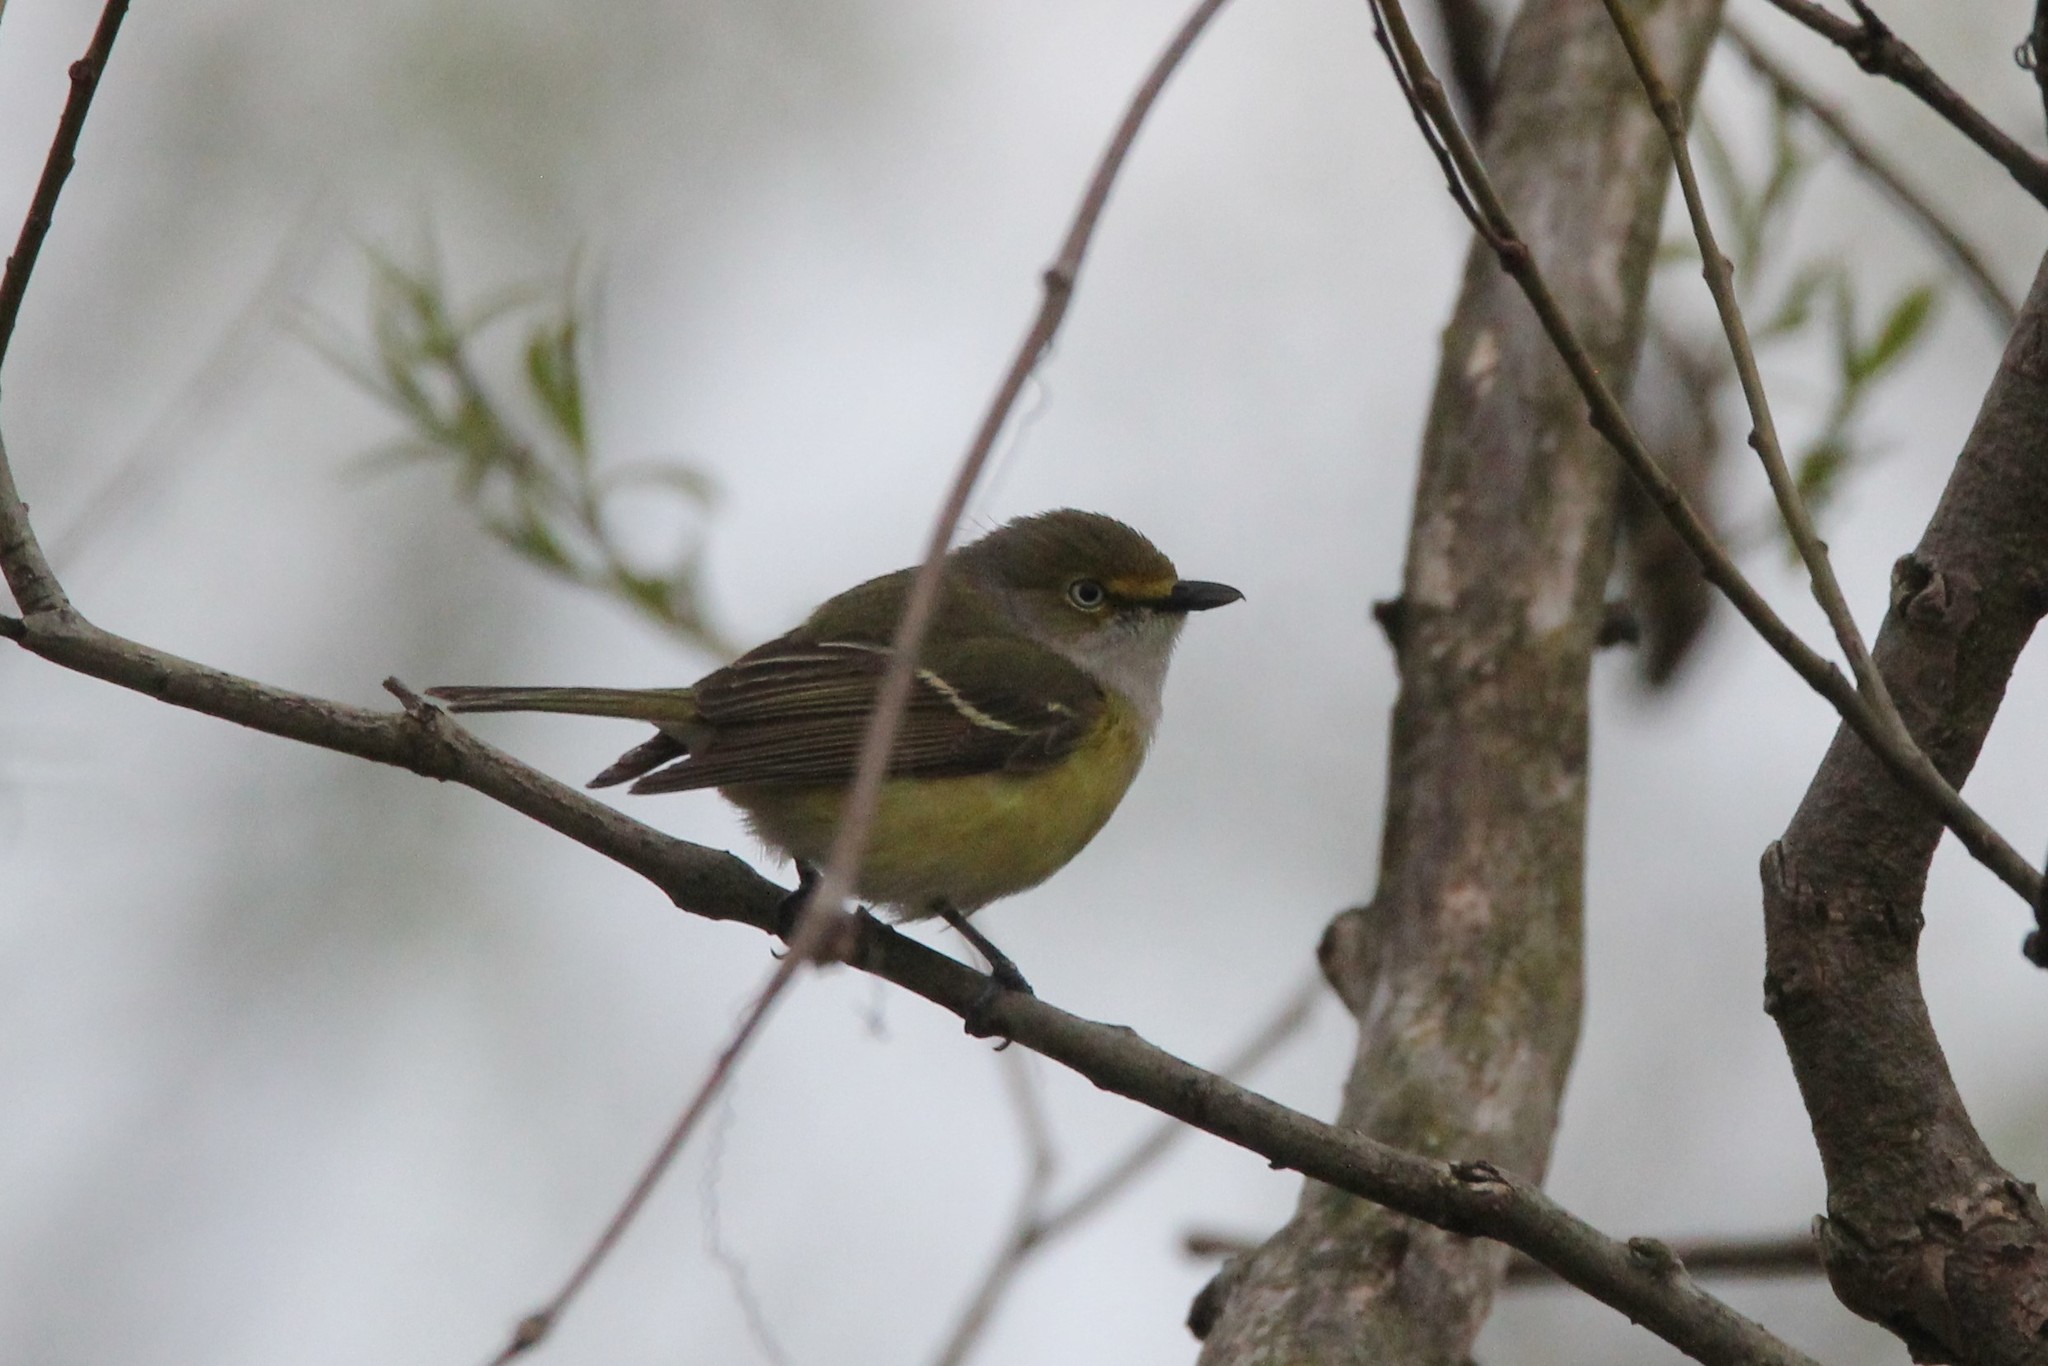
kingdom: Animalia
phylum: Chordata
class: Aves
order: Passeriformes
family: Vireonidae
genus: Vireo
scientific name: Vireo griseus
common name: White-eyed vireo
